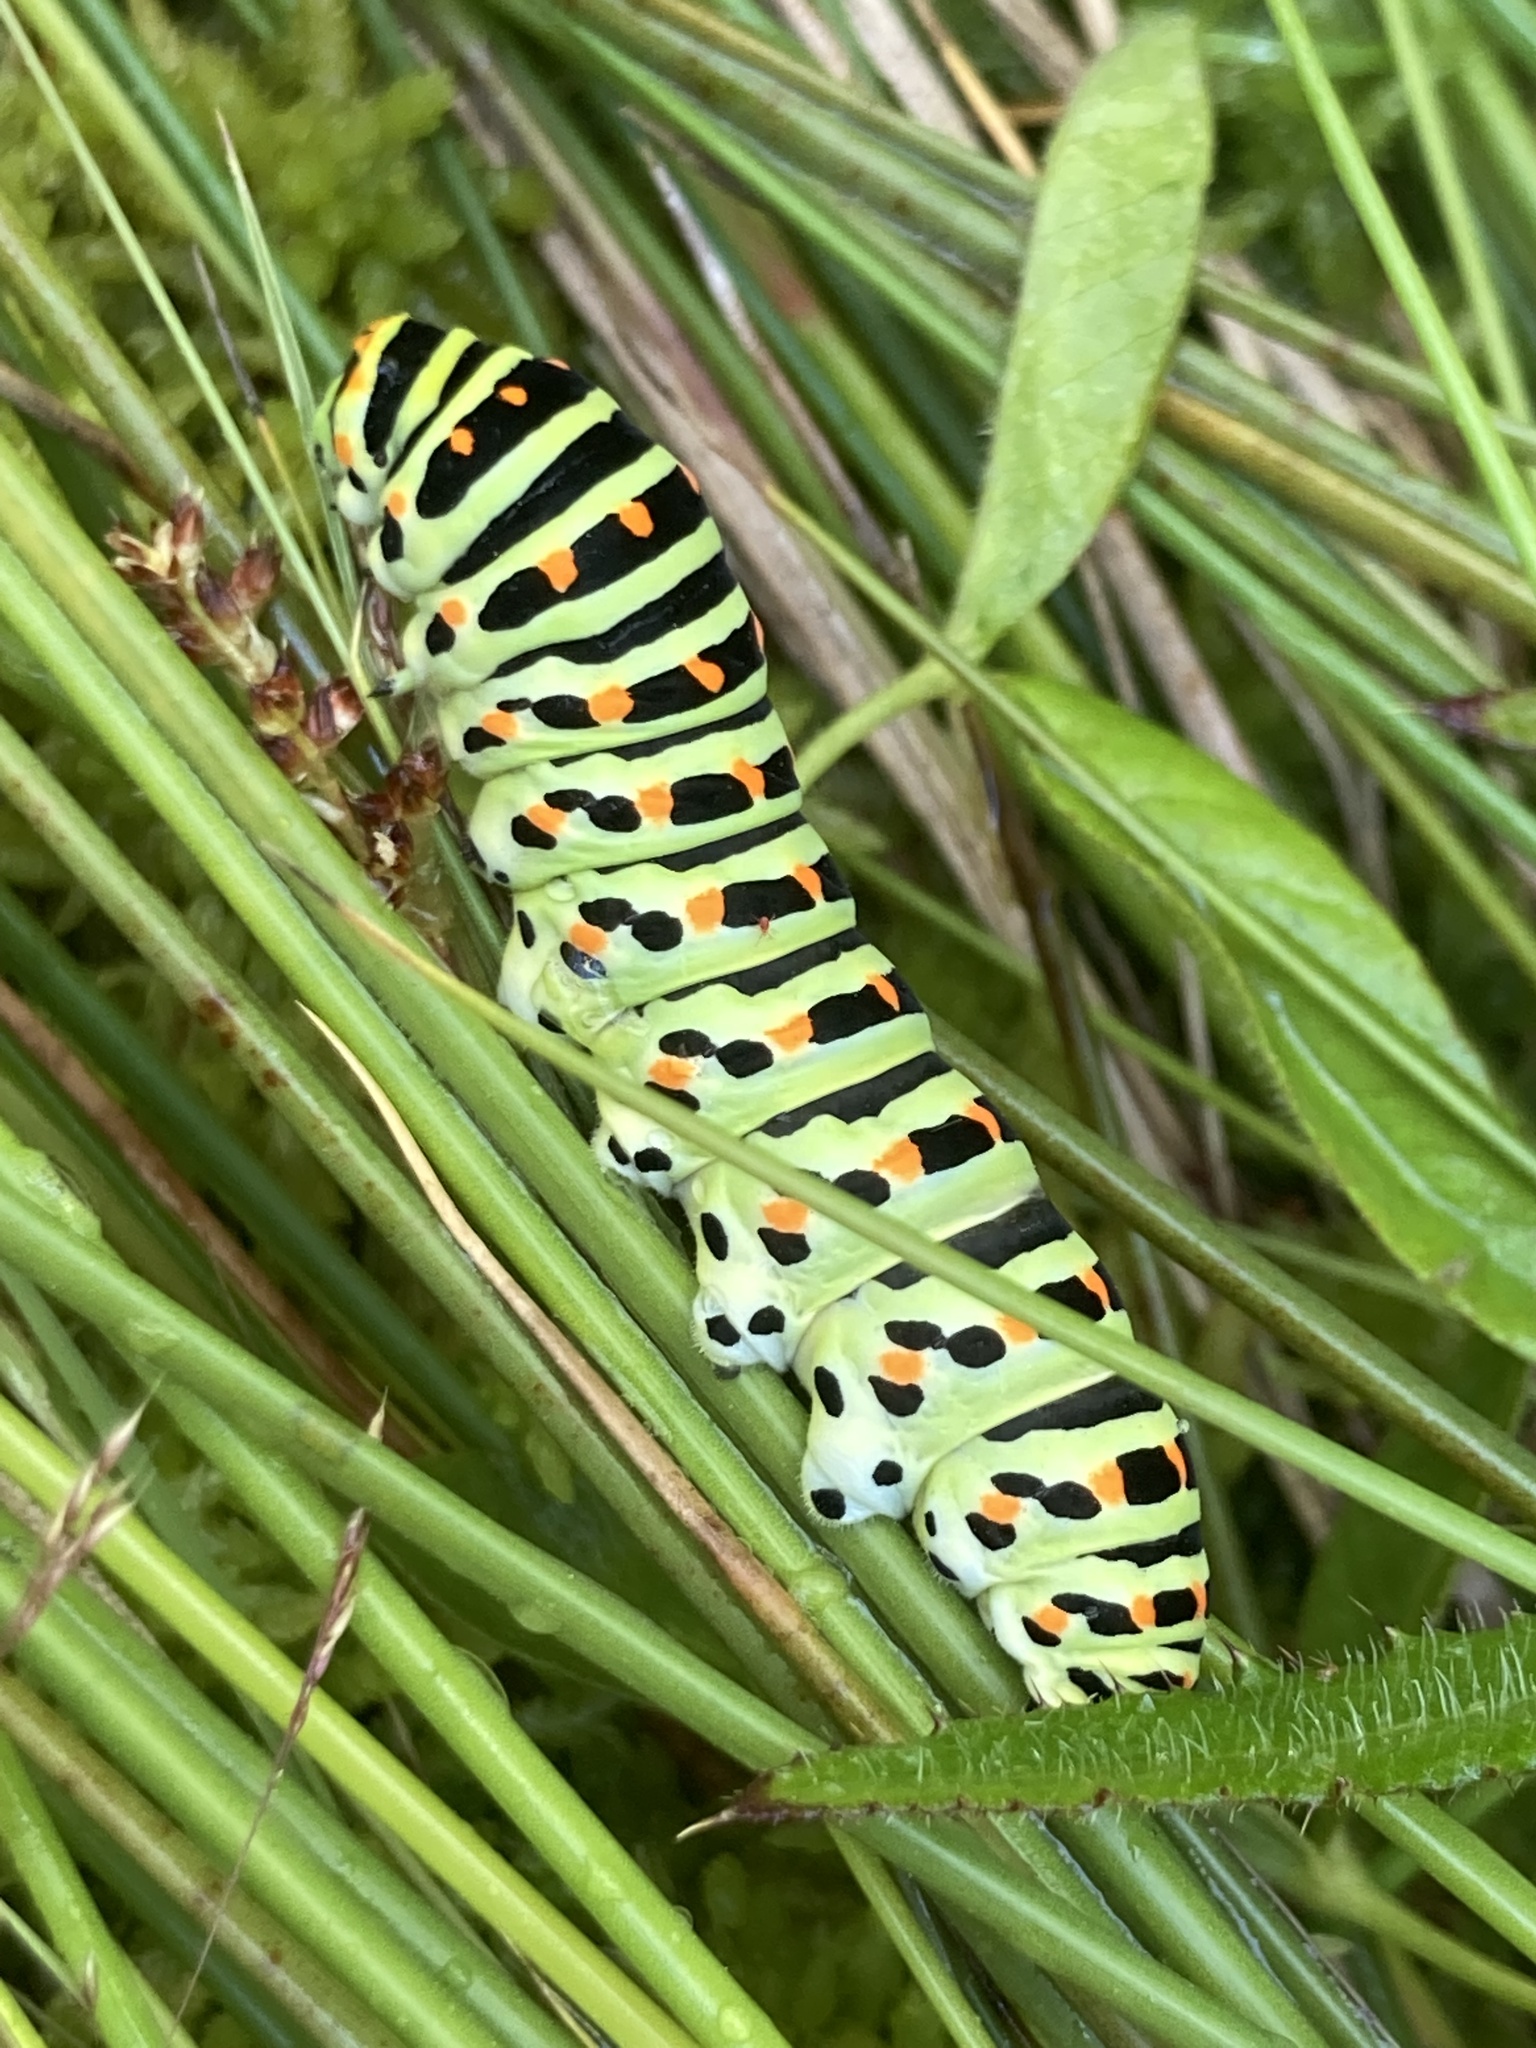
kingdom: Animalia
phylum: Arthropoda
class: Insecta
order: Lepidoptera
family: Papilionidae
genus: Papilio
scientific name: Papilio machaon
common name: Swallowtail
